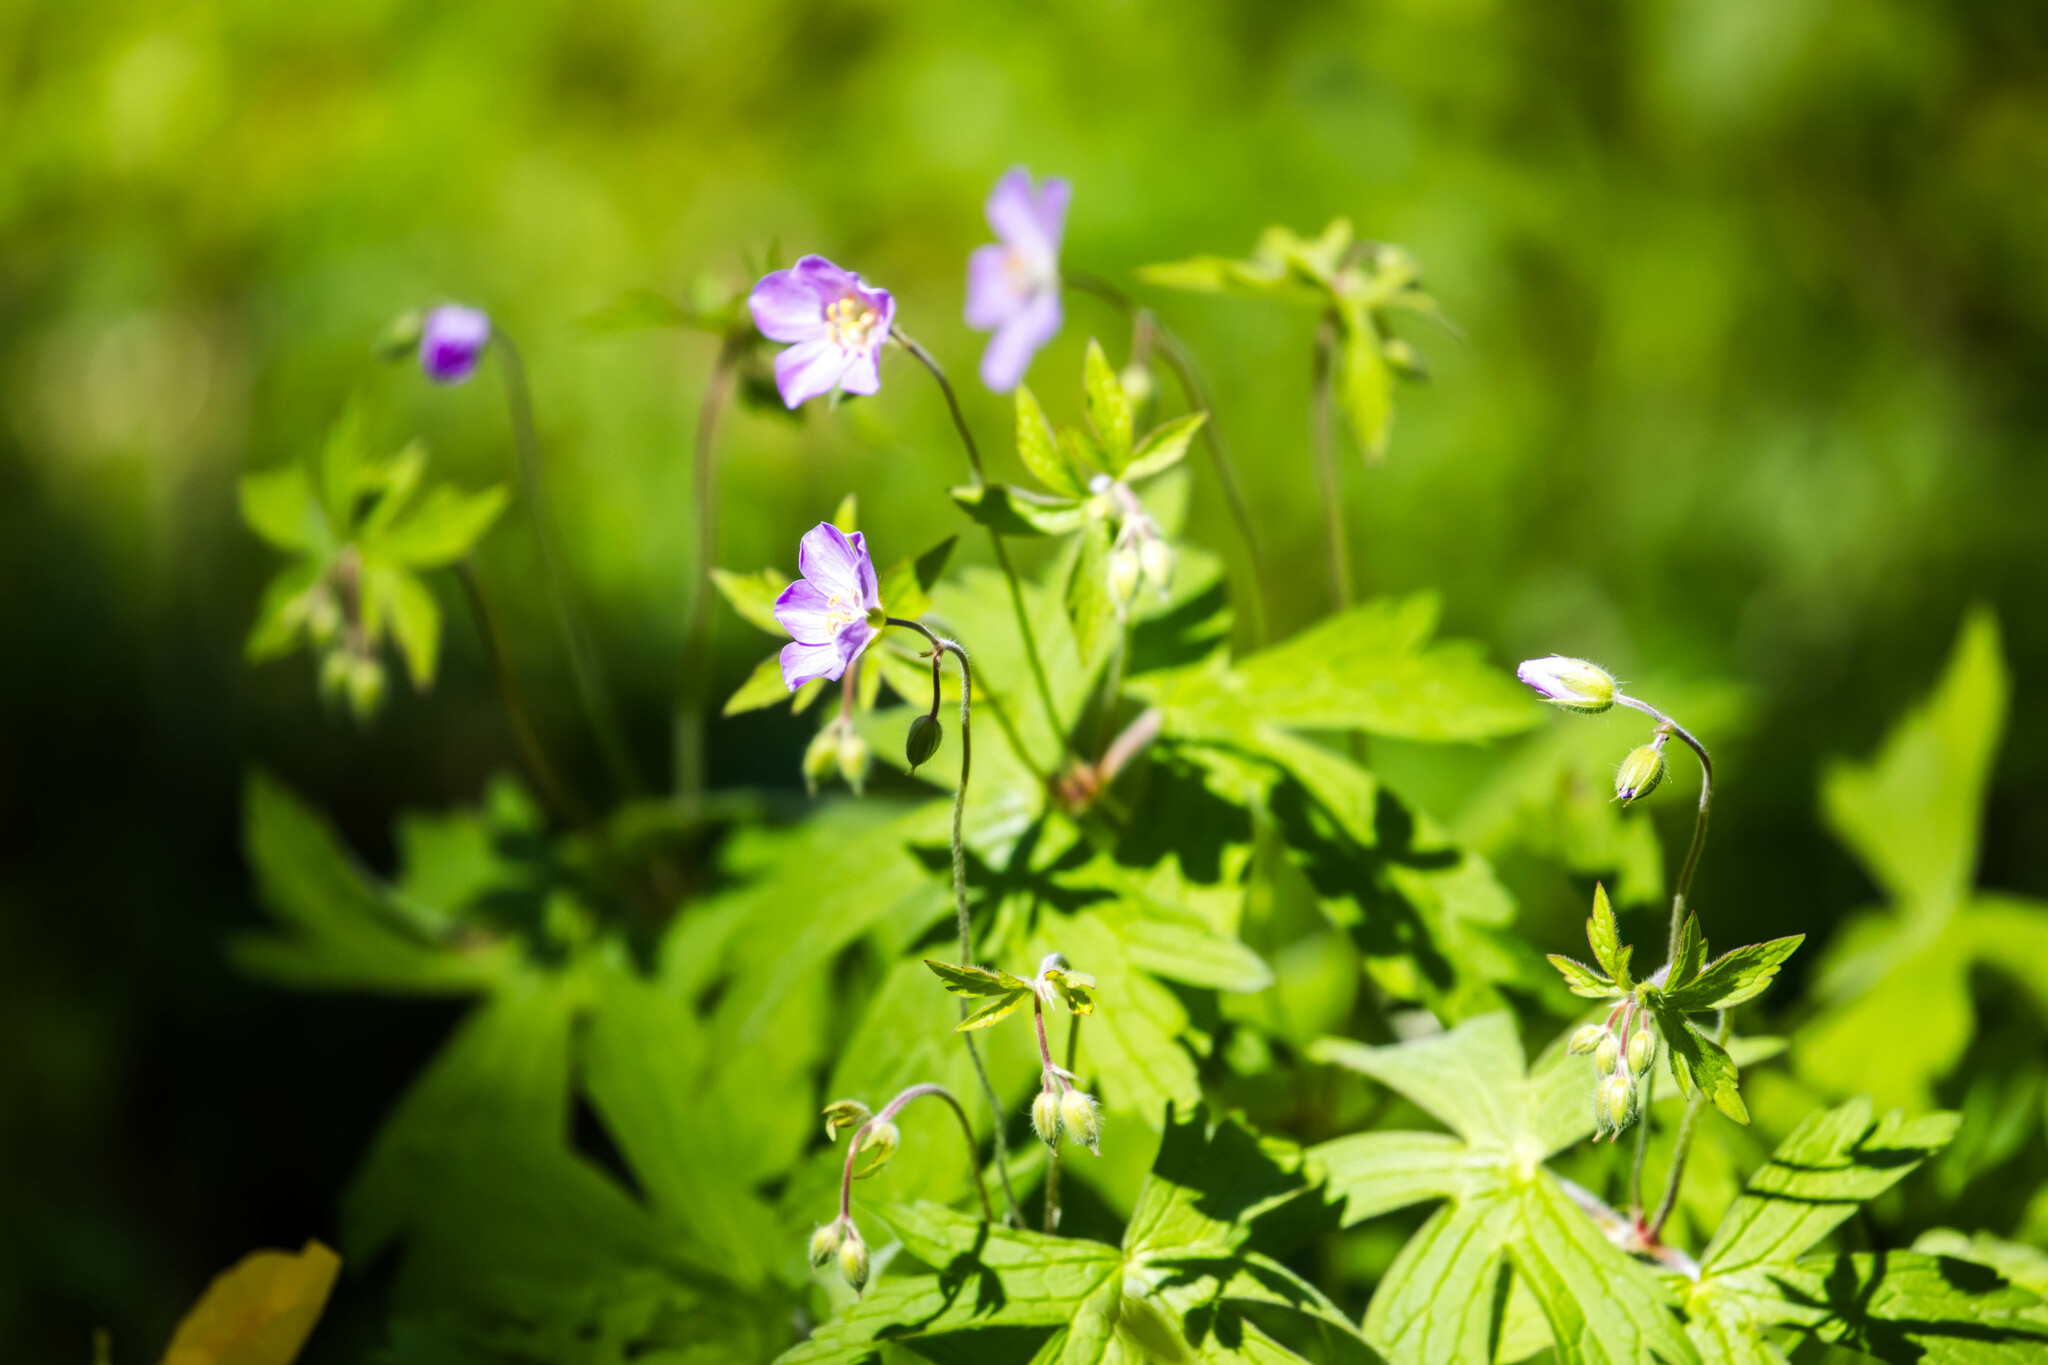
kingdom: Plantae
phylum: Tracheophyta
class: Magnoliopsida
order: Geraniales
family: Geraniaceae
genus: Geranium
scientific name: Geranium maculatum
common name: Spotted geranium
